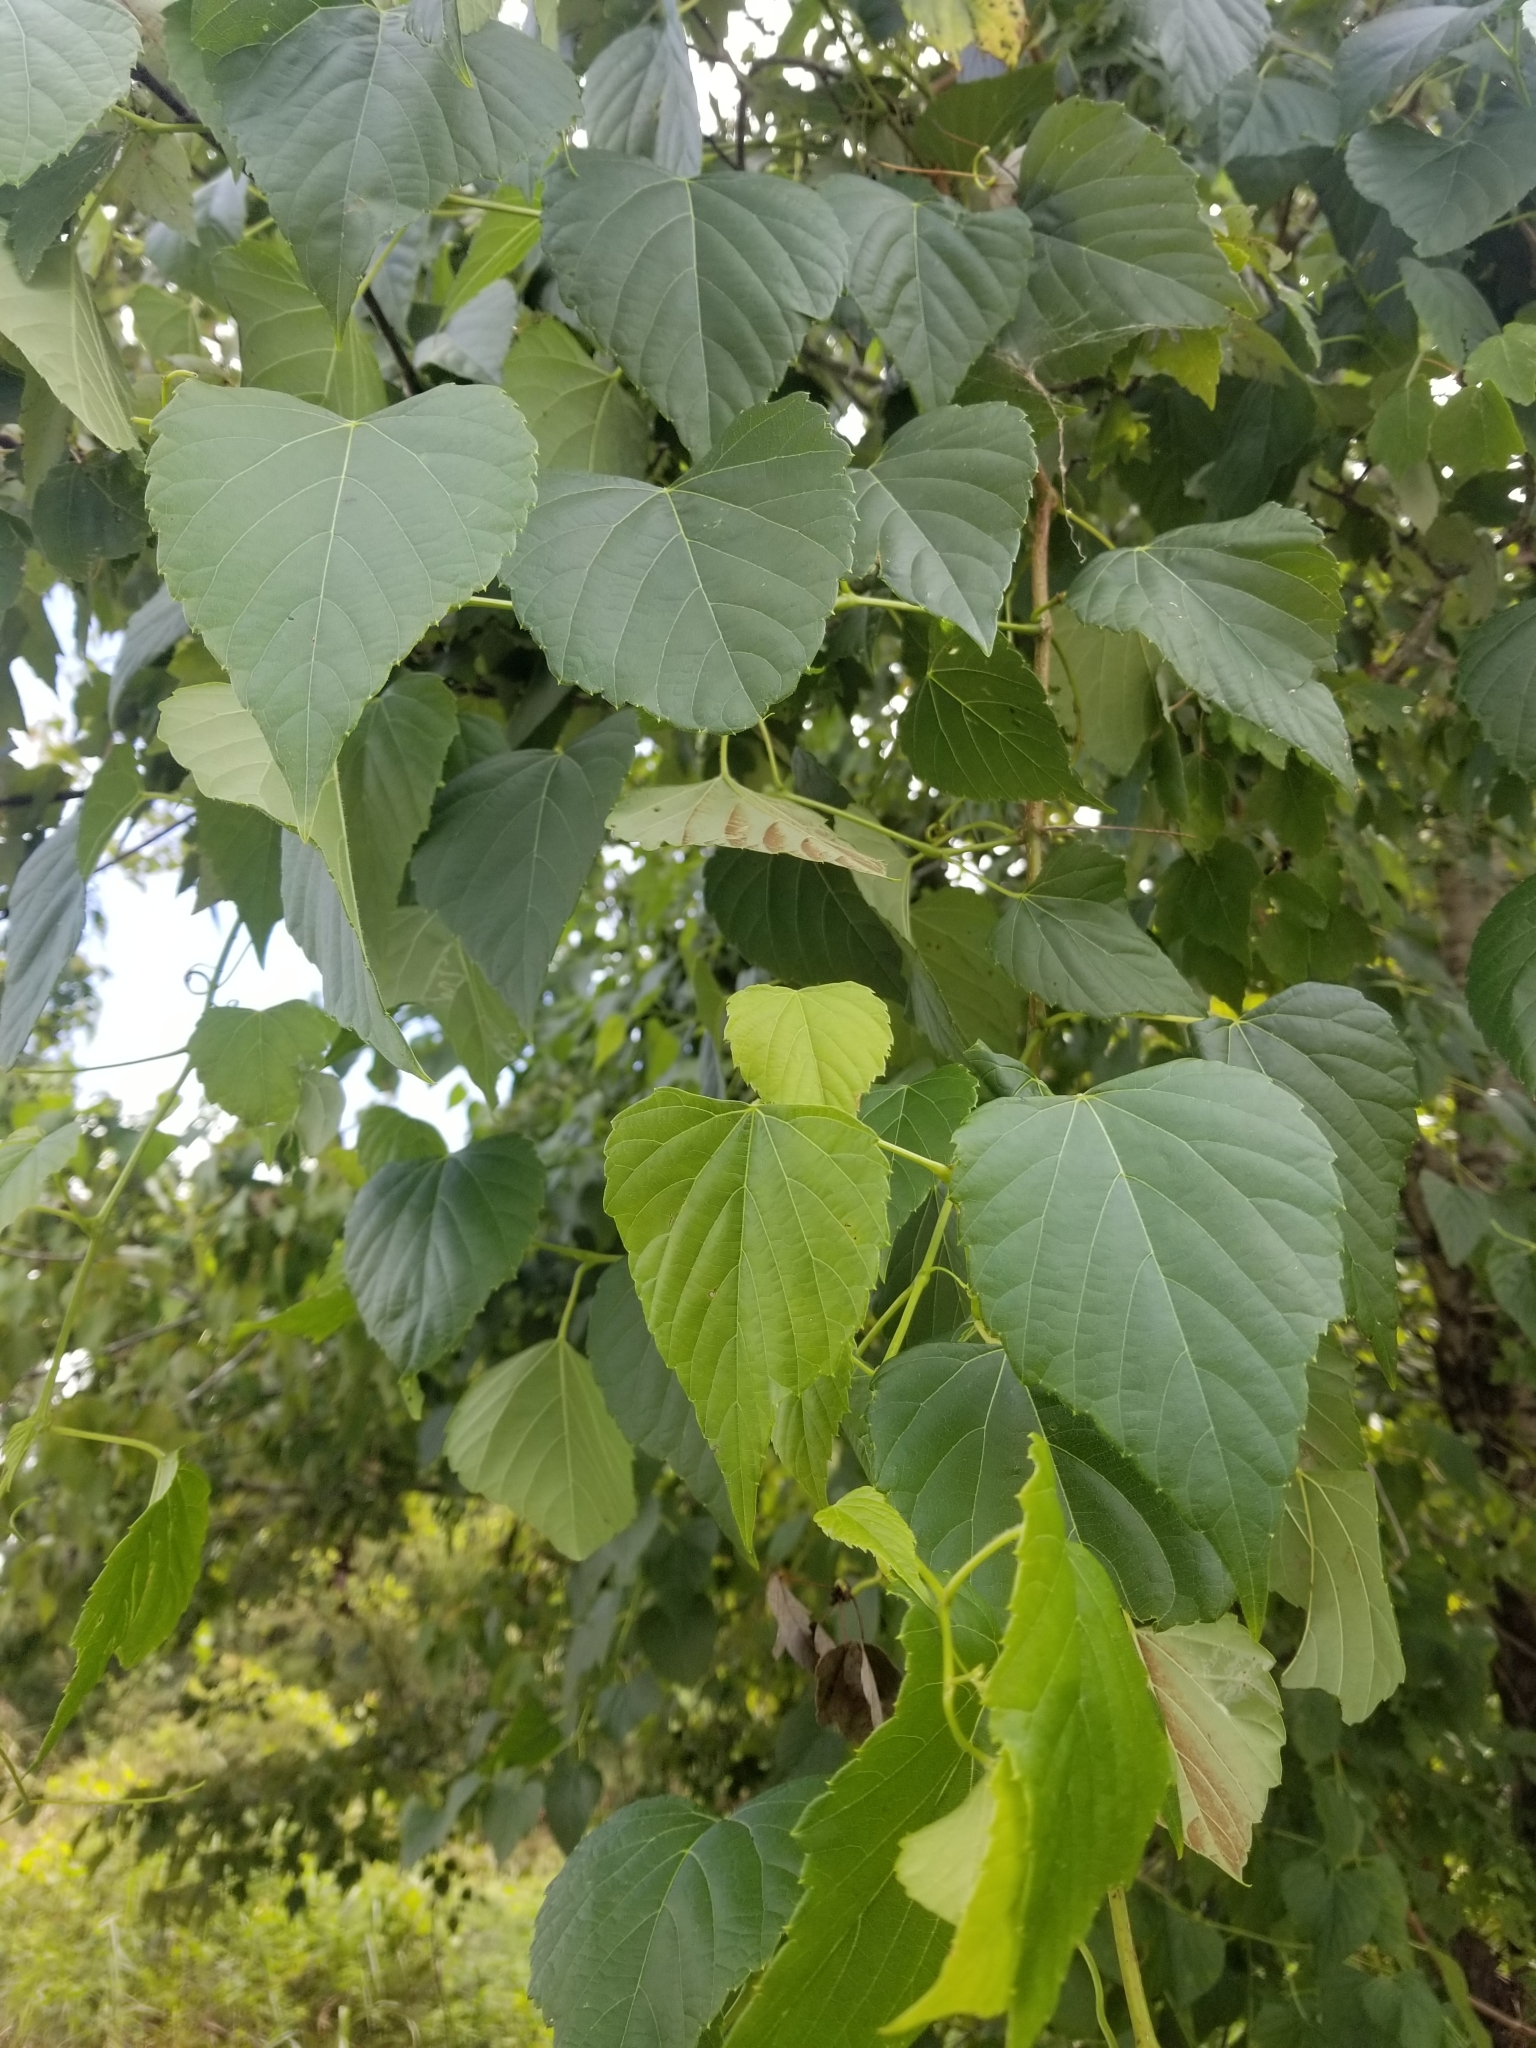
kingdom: Plantae
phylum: Tracheophyta
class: Magnoliopsida
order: Vitales
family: Vitaceae
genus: Ampelopsis
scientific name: Ampelopsis cordata
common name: Heart-leaf ampelopsis
